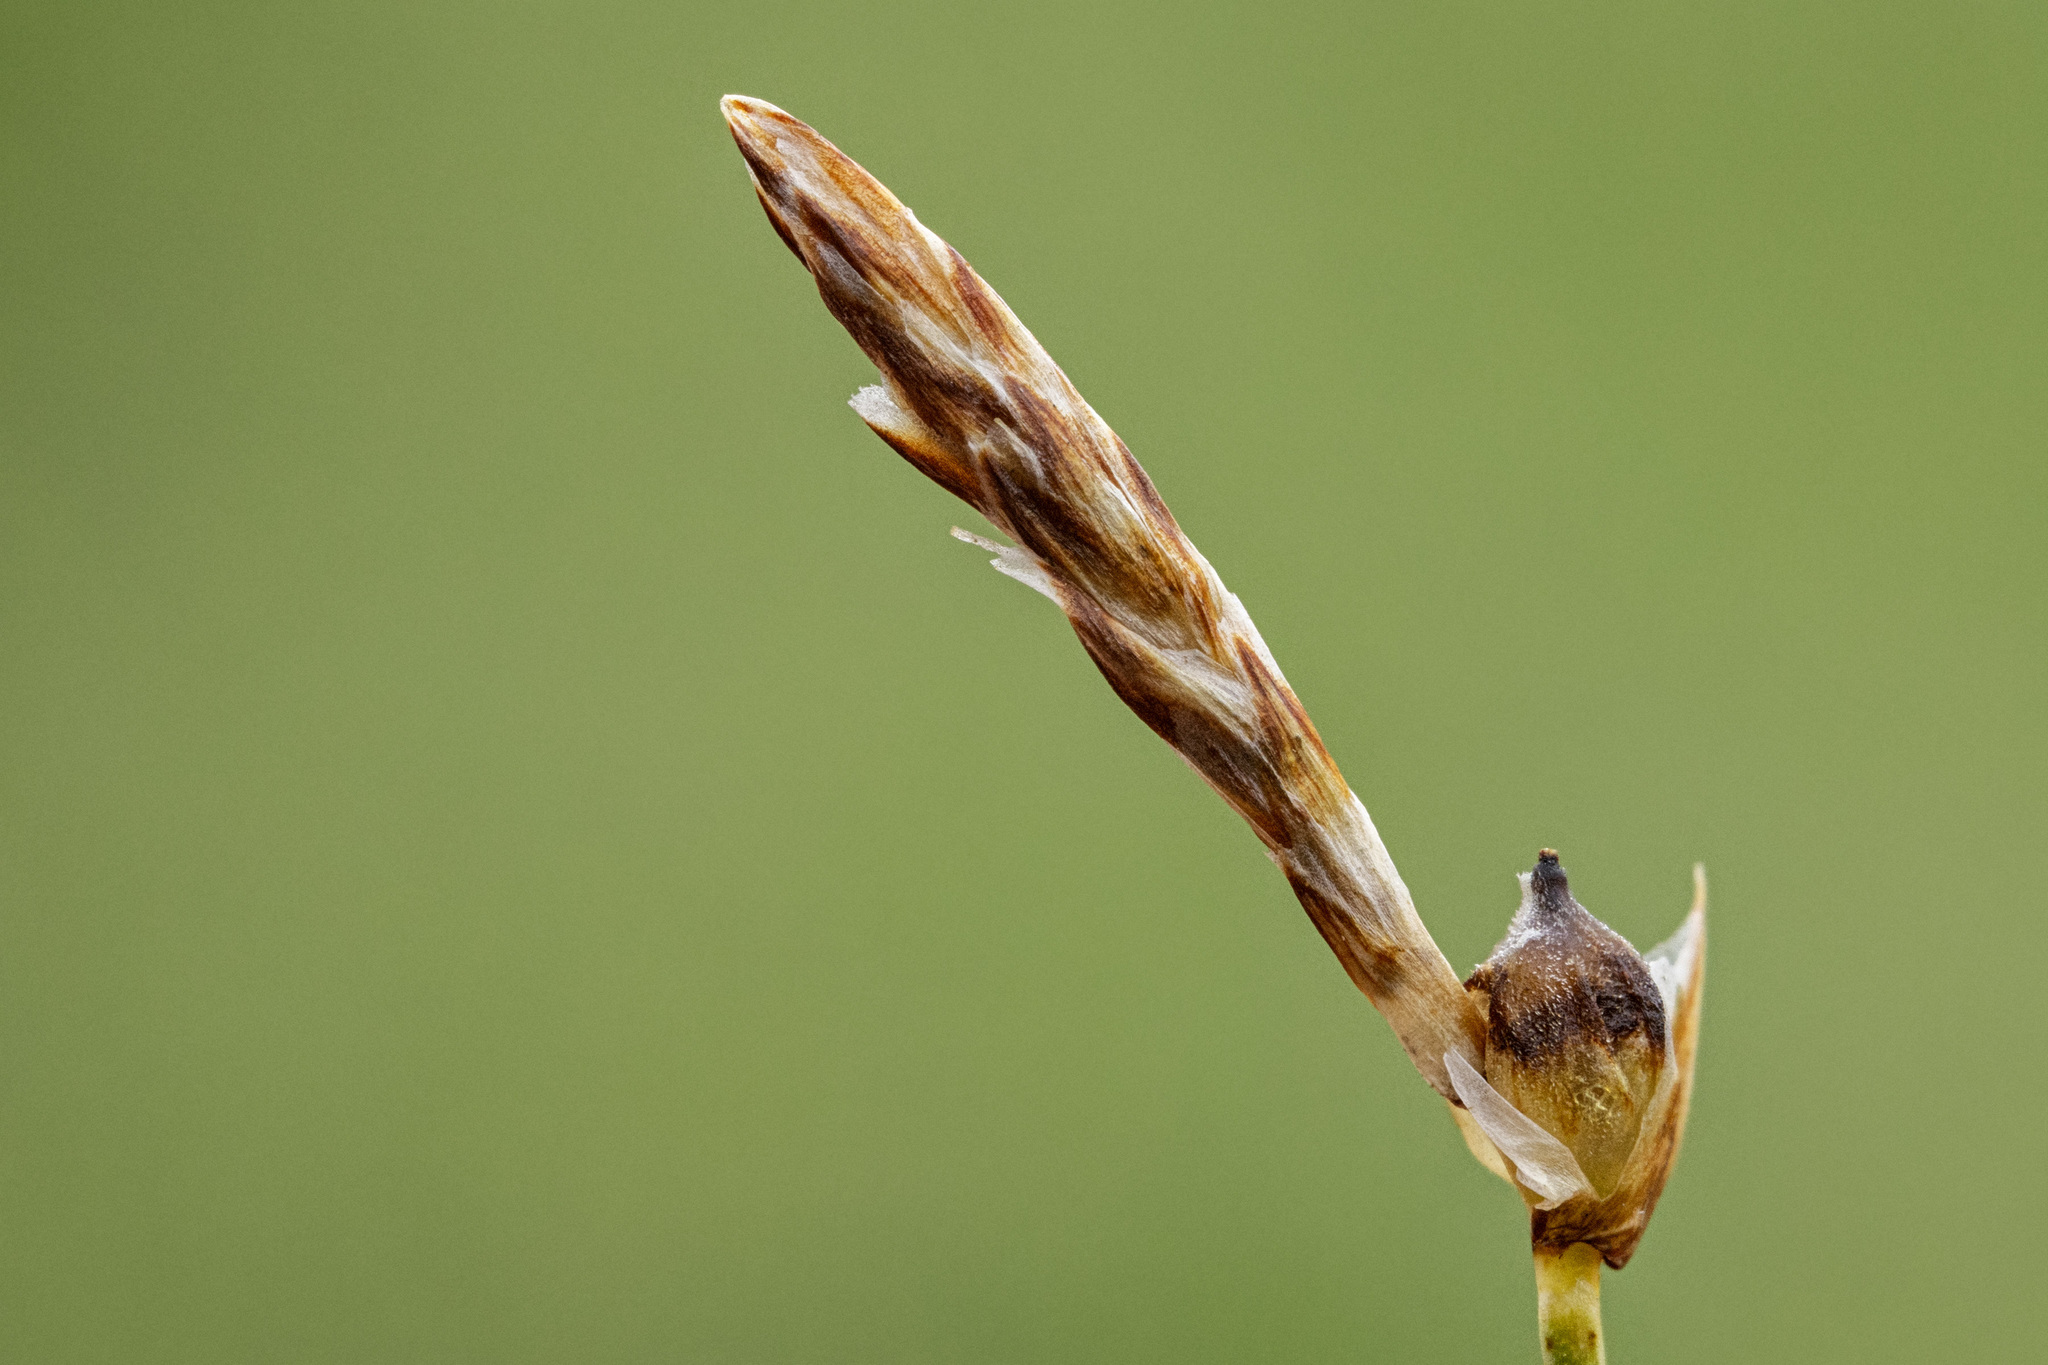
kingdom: Plantae
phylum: Tracheophyta
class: Liliopsida
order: Poales
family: Cyperaceae
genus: Carex
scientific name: Carex filifolia
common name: Threadleaf sedge
